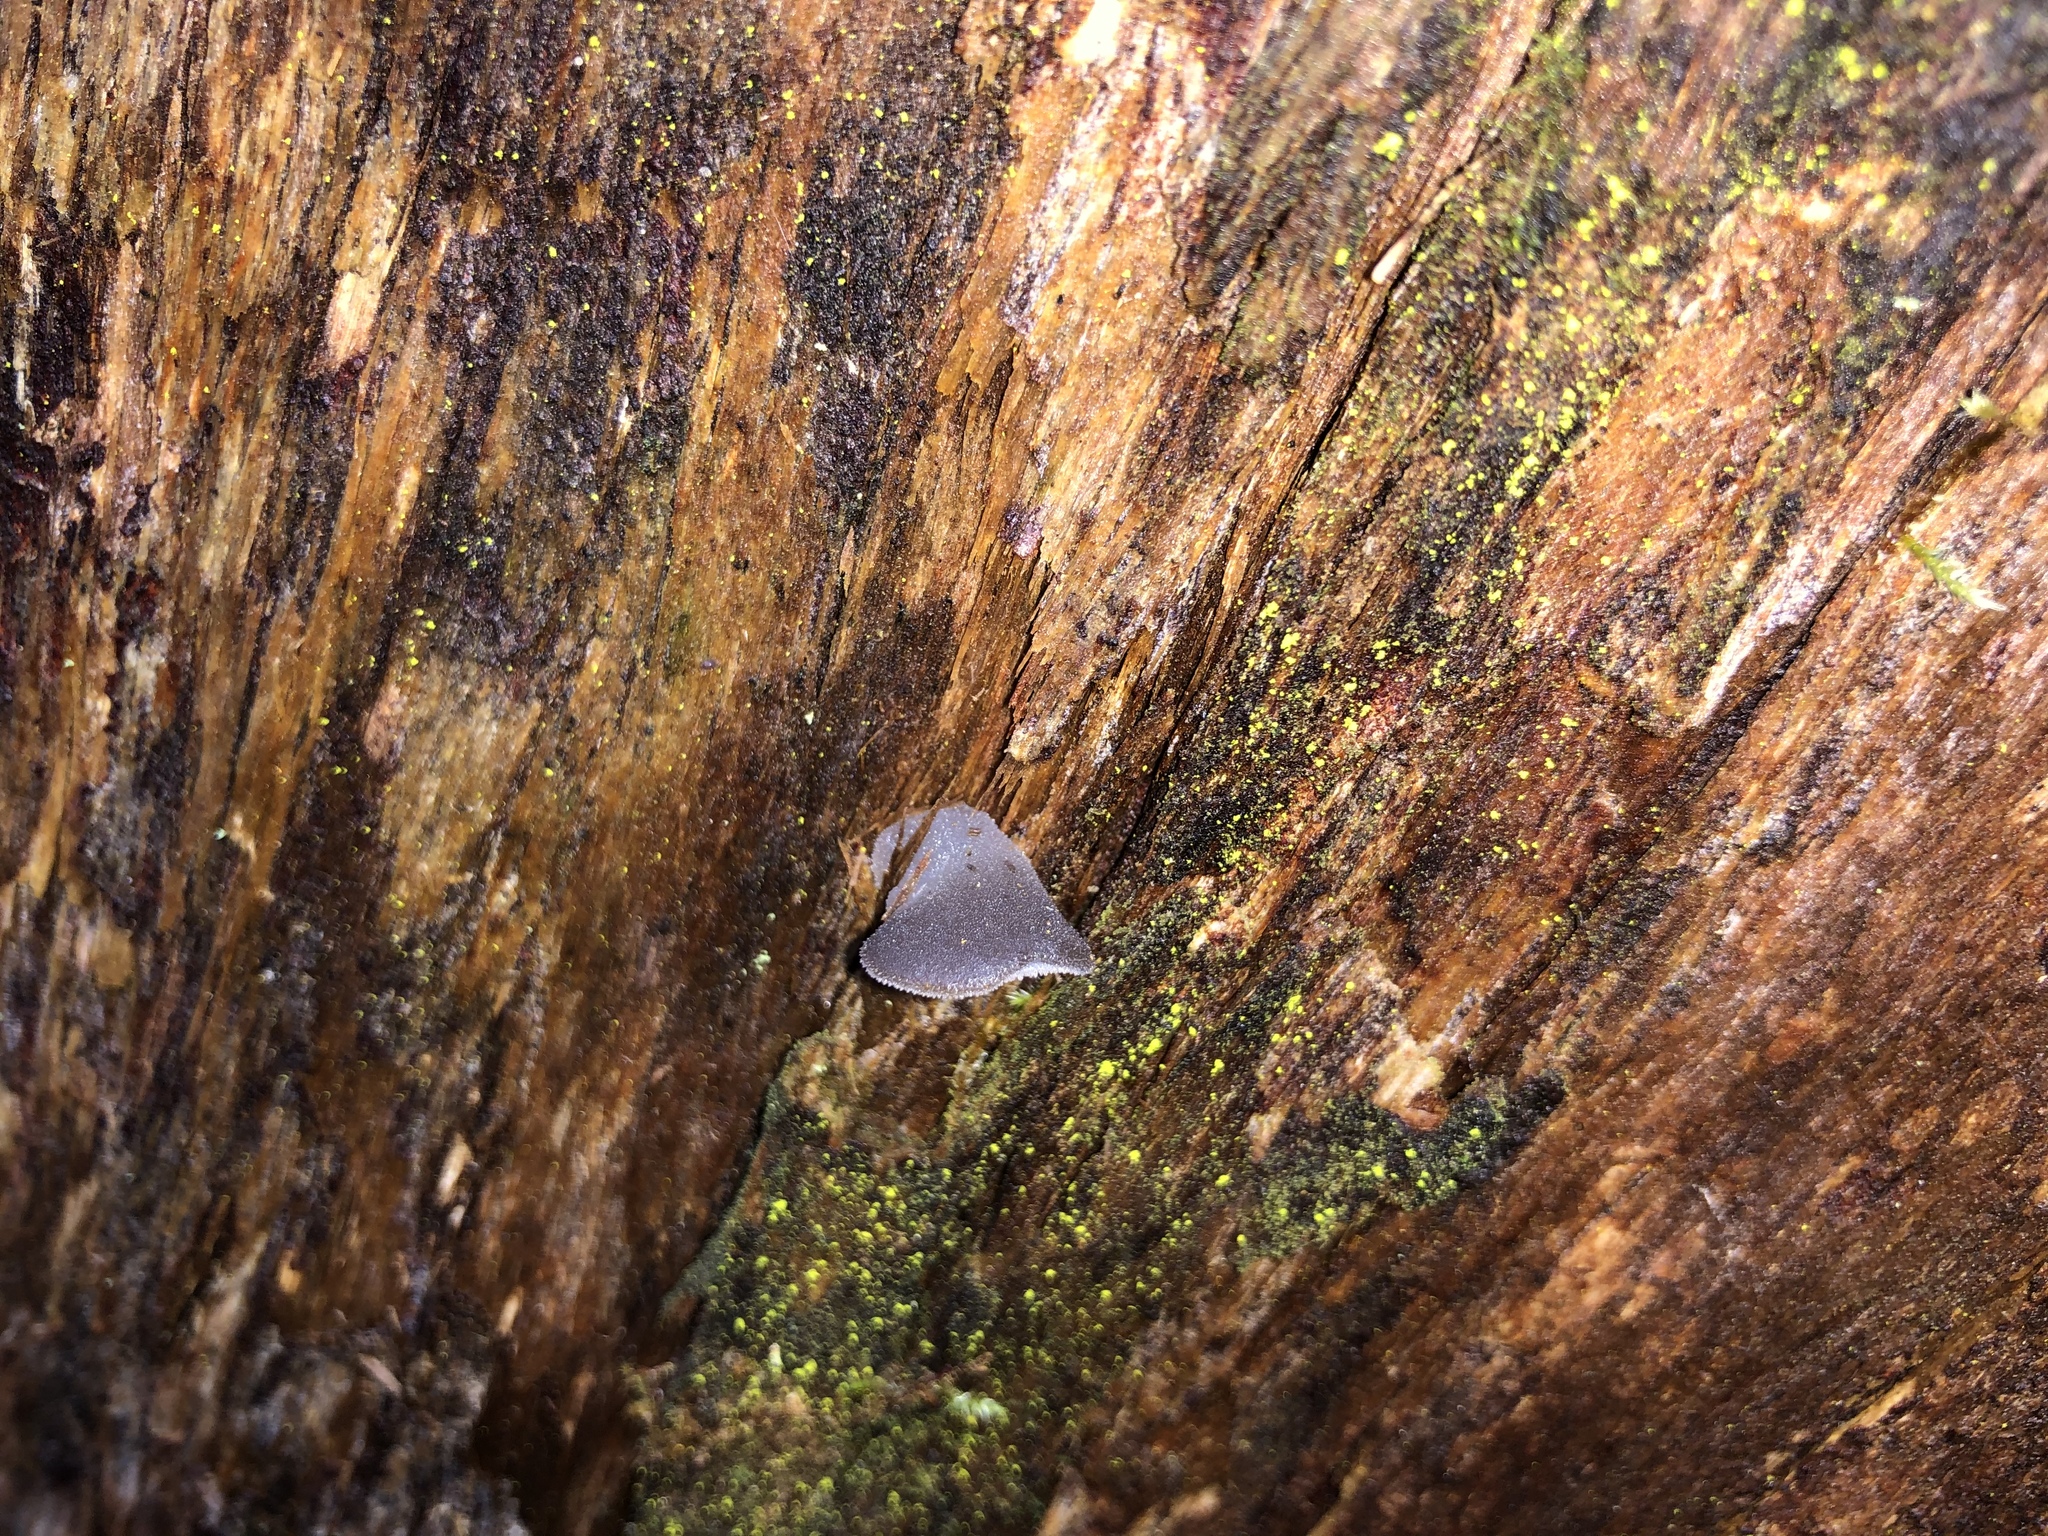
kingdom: Fungi
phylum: Basidiomycota
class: Agaricomycetes
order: Auriculariales
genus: Pseudohydnum
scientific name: Pseudohydnum gelatinosum
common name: Jelly tongue
